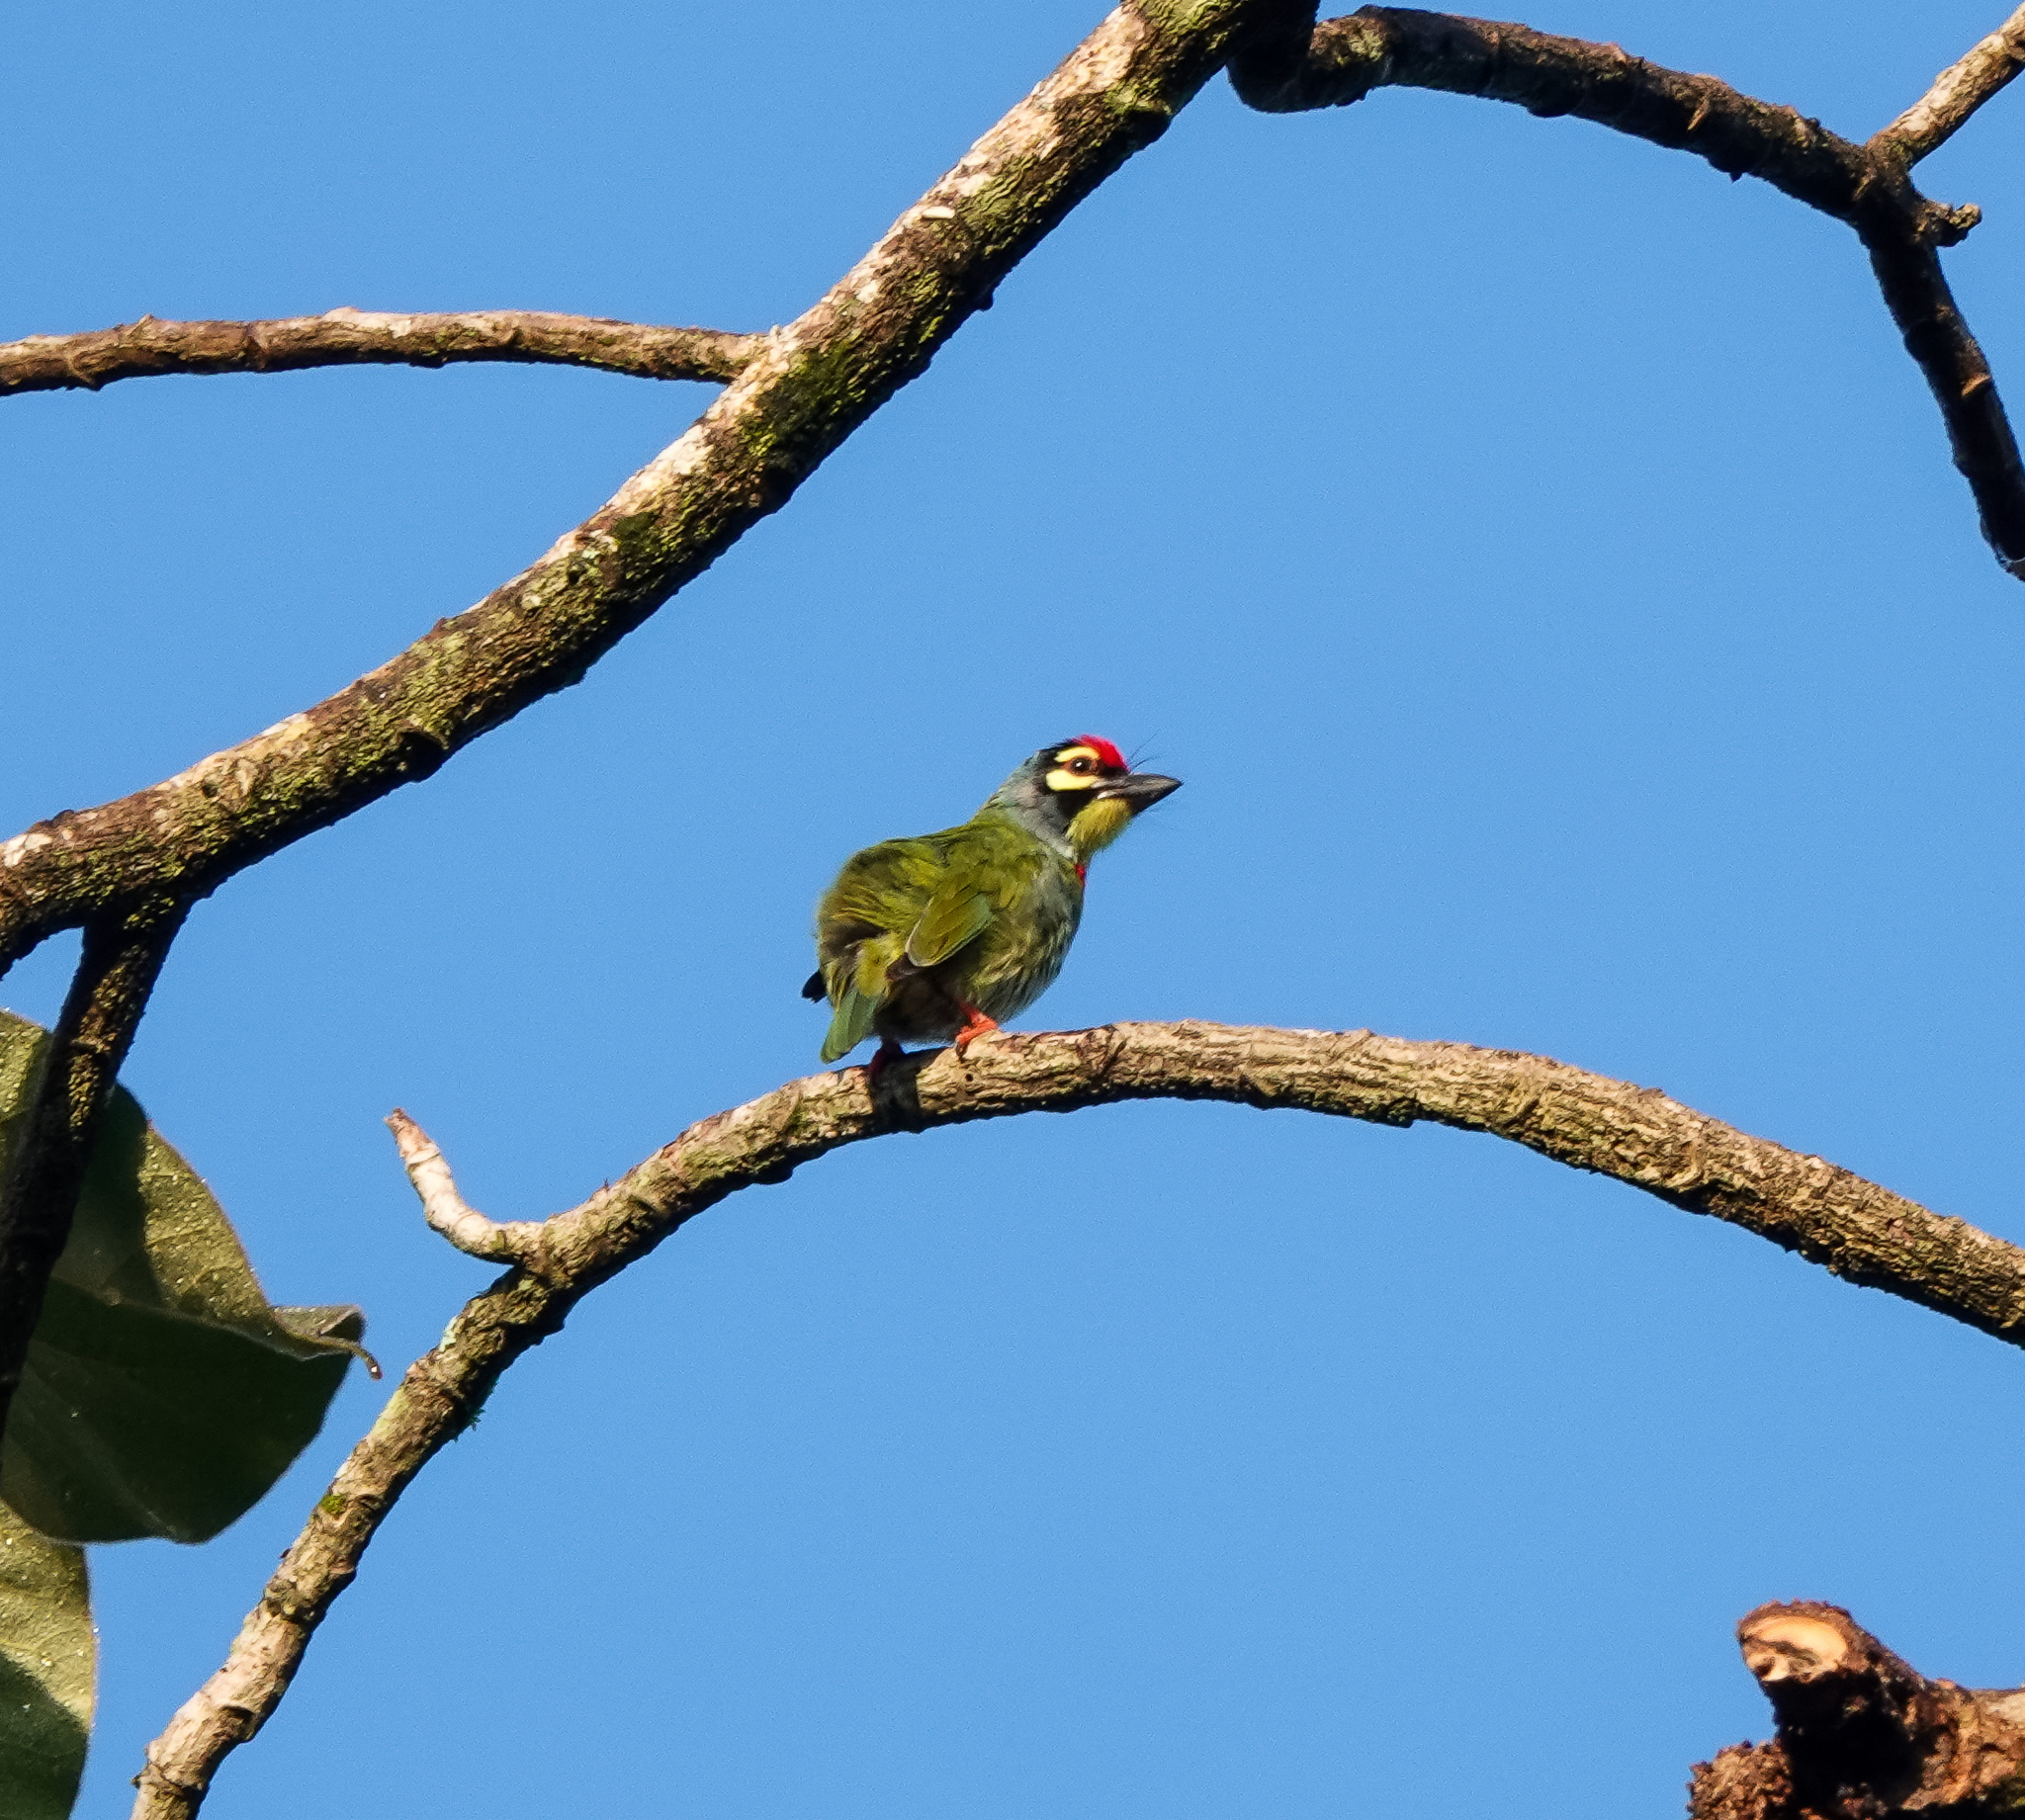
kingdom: Animalia
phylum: Chordata
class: Aves
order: Piciformes
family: Megalaimidae
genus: Psilopogon
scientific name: Psilopogon haemacephalus
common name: Coppersmith barbet
